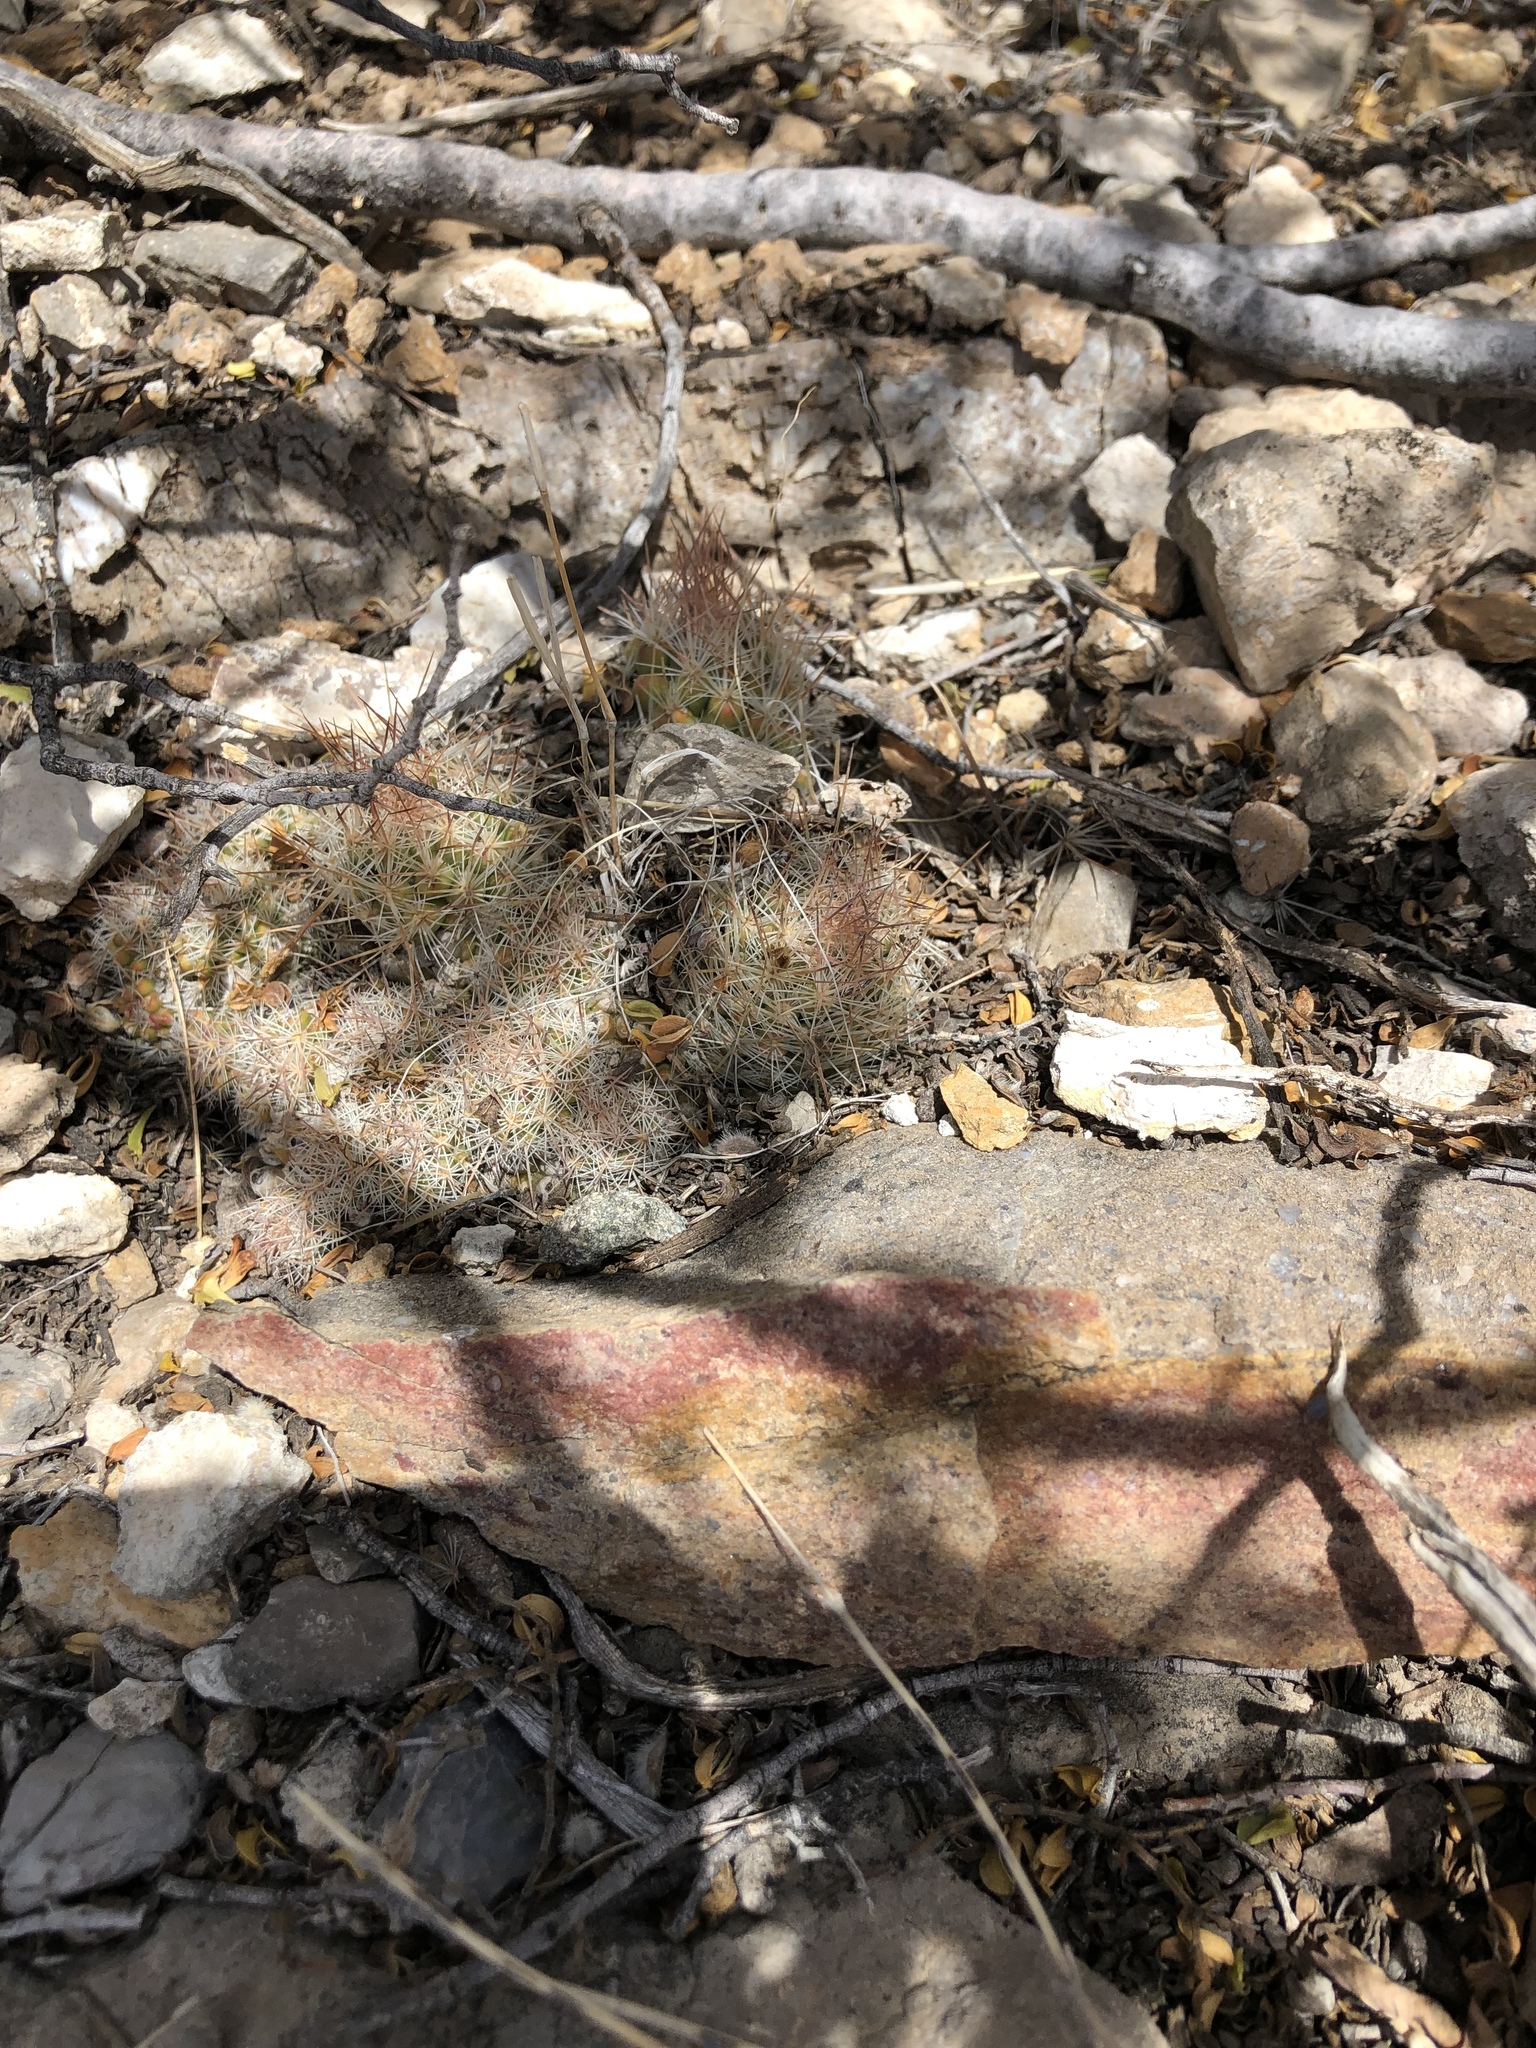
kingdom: Plantae
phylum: Tracheophyta
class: Magnoliopsida
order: Caryophyllales
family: Cactaceae
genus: Pelecyphora
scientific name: Pelecyphora tuberculosa
